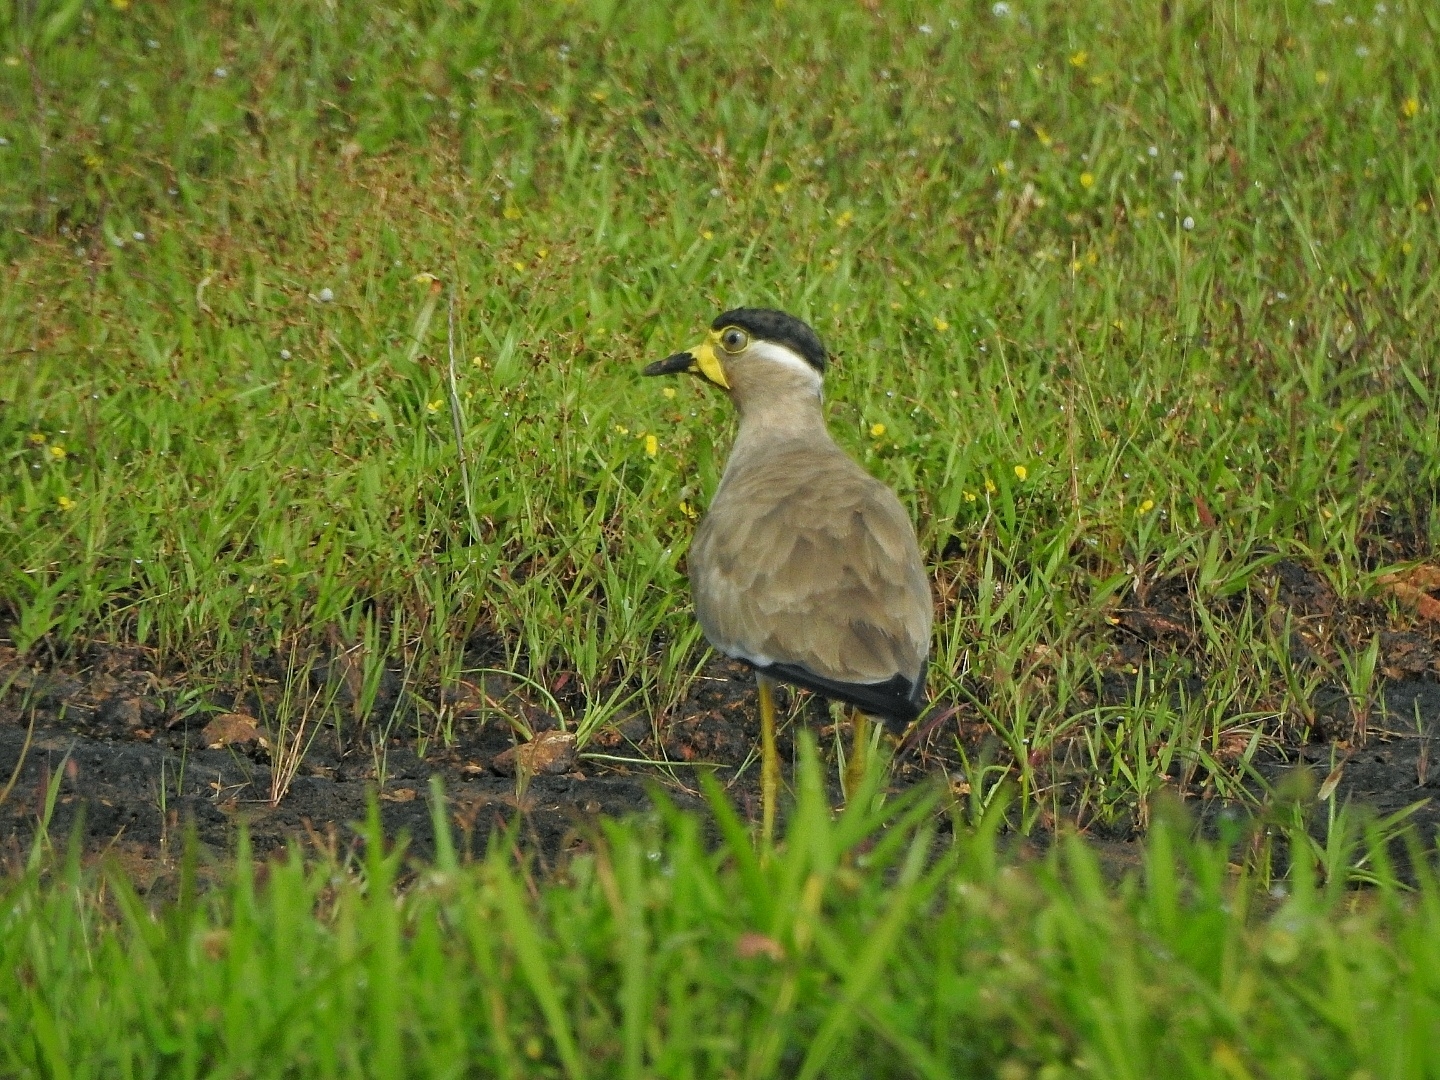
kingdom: Animalia
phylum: Chordata
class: Aves
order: Charadriiformes
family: Charadriidae
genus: Vanellus
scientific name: Vanellus malabaricus
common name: Yellow-wattled lapwing
